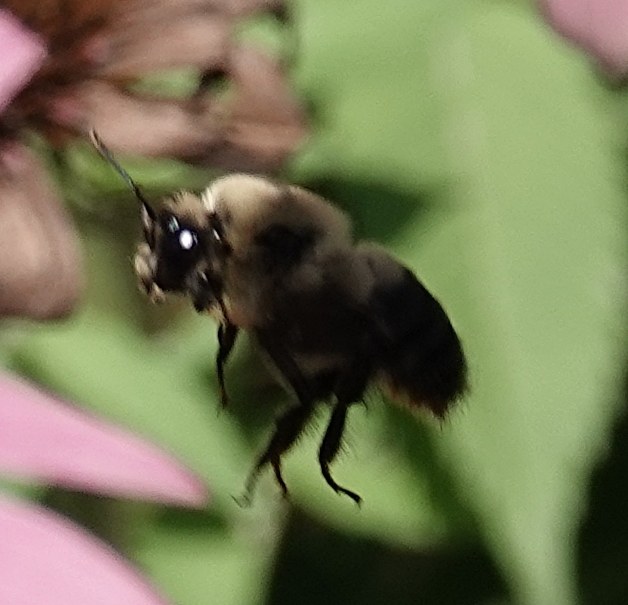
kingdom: Animalia
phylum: Arthropoda
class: Insecta
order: Hymenoptera
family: Apidae
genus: Bombus
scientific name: Bombus griseocollis
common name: Brown-belted bumble bee
